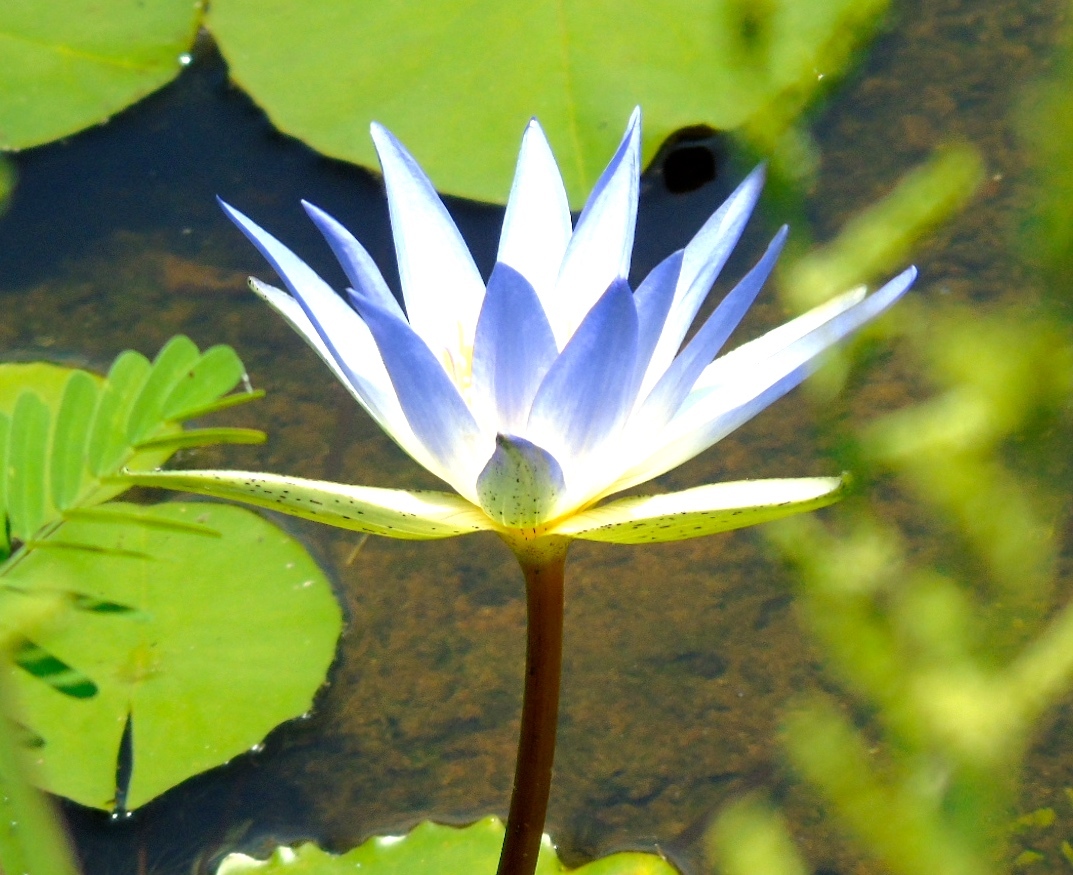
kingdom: Plantae
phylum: Tracheophyta
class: Magnoliopsida
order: Nymphaeales
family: Nymphaeaceae
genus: Nymphaea
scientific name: Nymphaea
